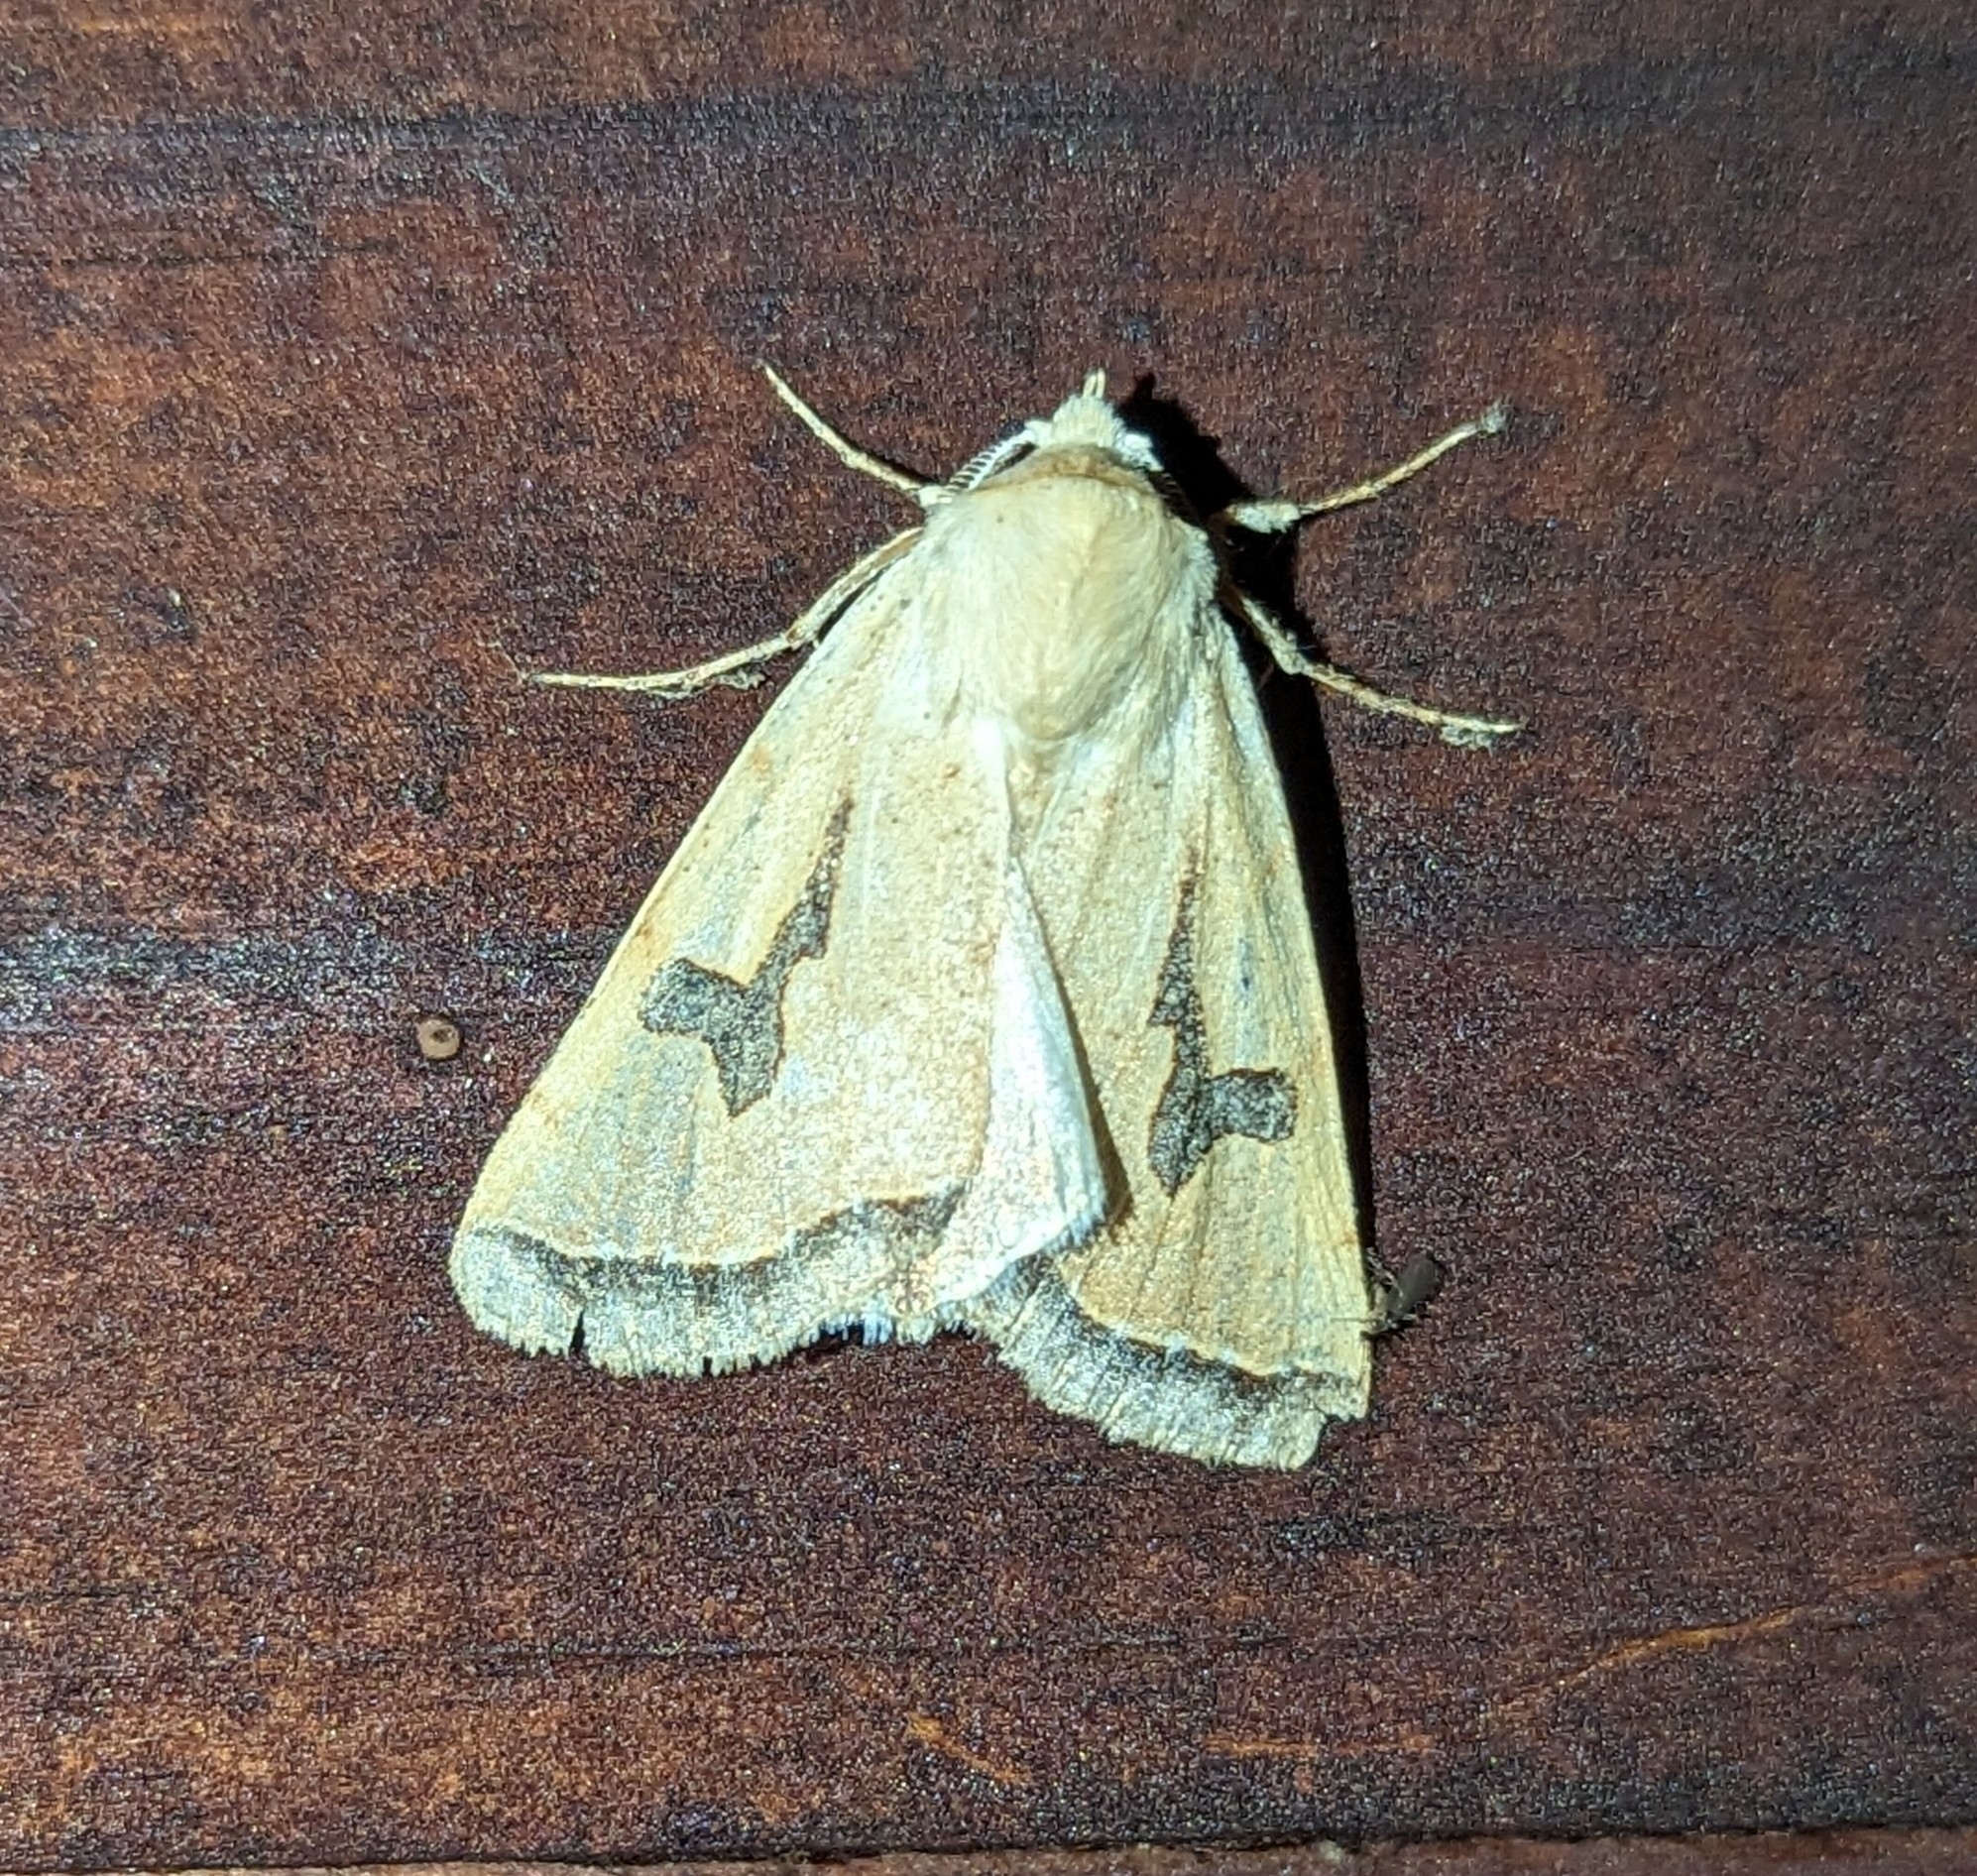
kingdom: Animalia
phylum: Arthropoda
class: Insecta
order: Lepidoptera
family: Erebidae
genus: Ctenusa
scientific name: Ctenusa varians
